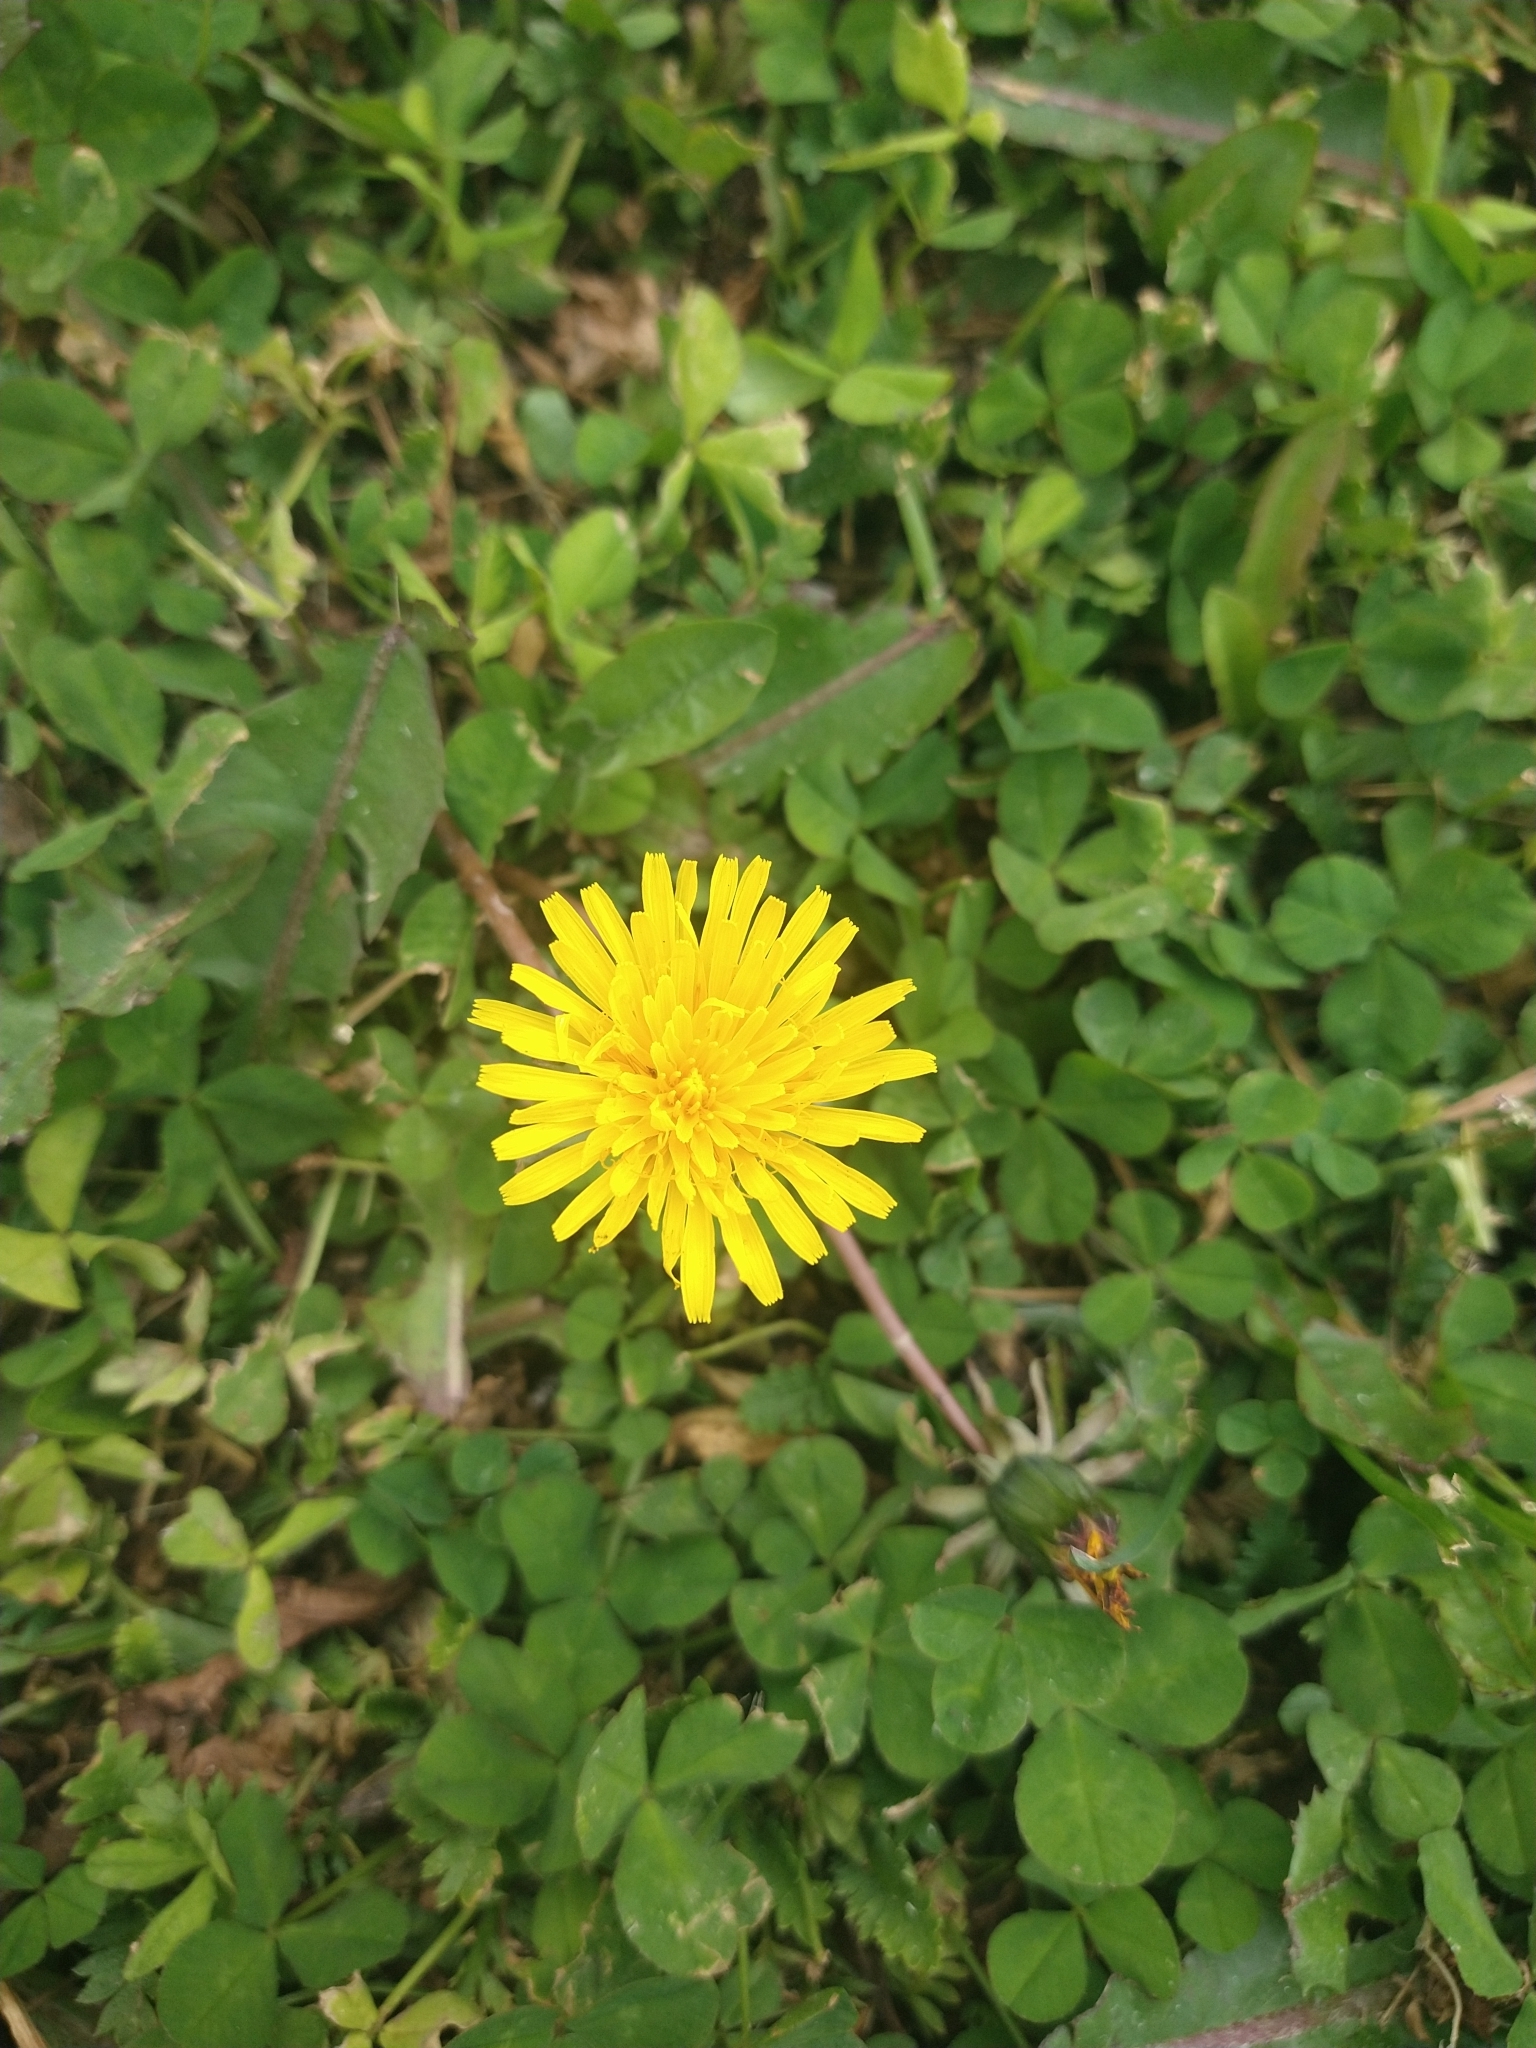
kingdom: Plantae
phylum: Tracheophyta
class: Magnoliopsida
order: Asterales
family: Asteraceae
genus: Taraxacum
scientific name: Taraxacum officinale
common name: Common dandelion
